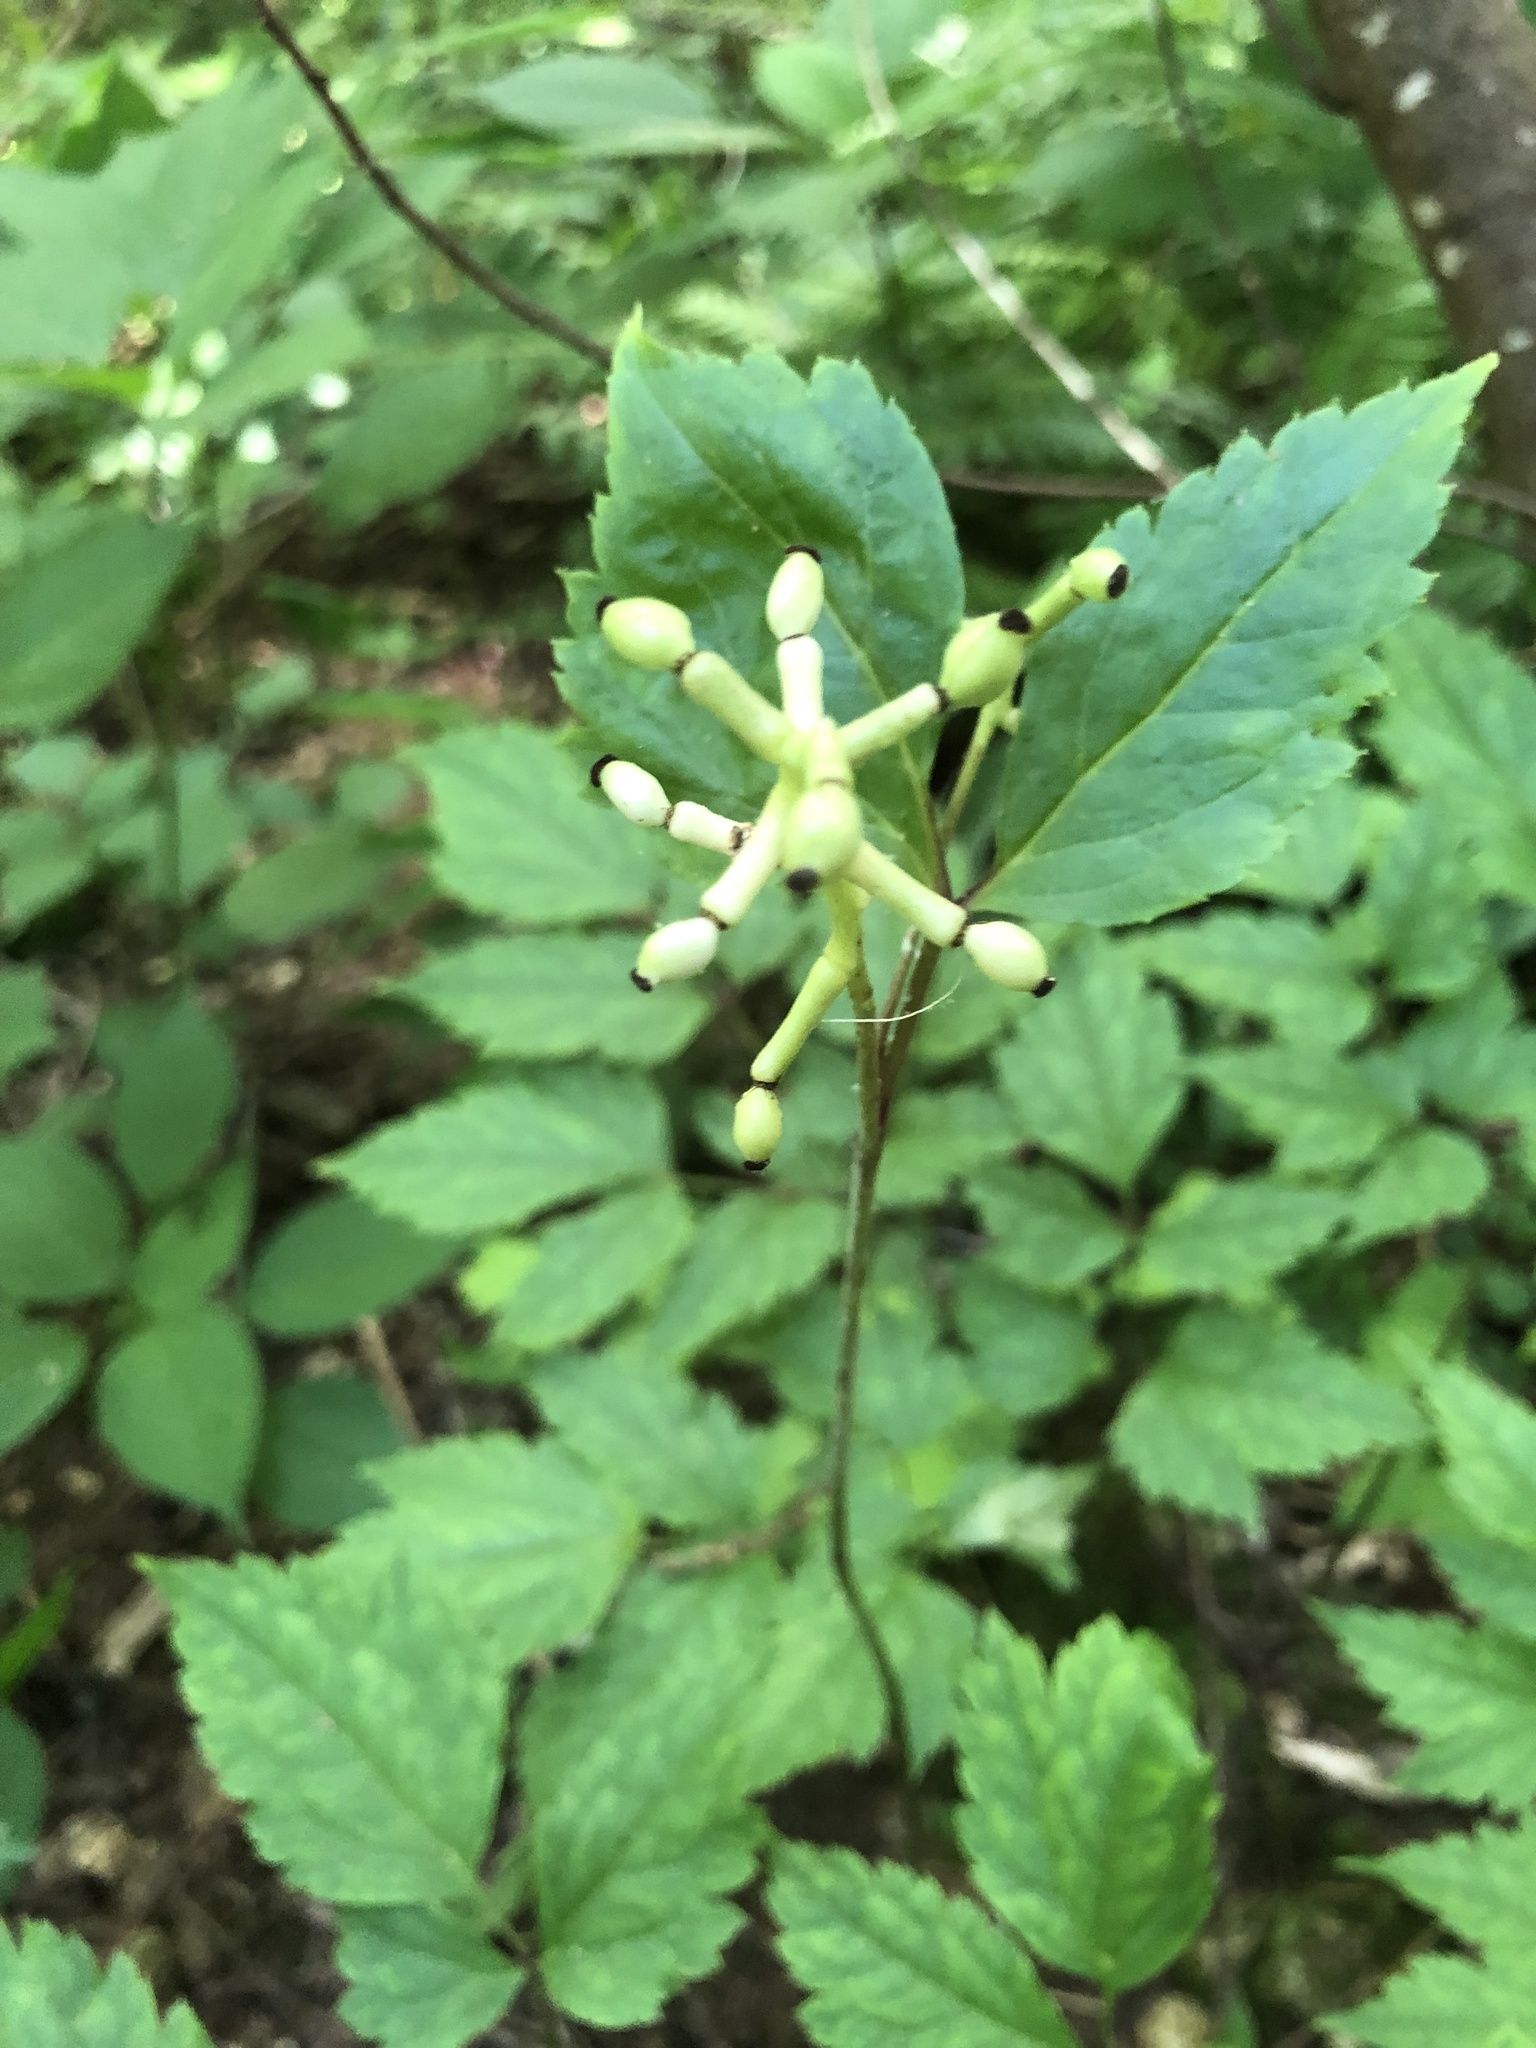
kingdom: Plantae
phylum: Tracheophyta
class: Magnoliopsida
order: Ranunculales
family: Ranunculaceae
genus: Actaea
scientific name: Actaea pachypoda
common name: Doll's-eyes
